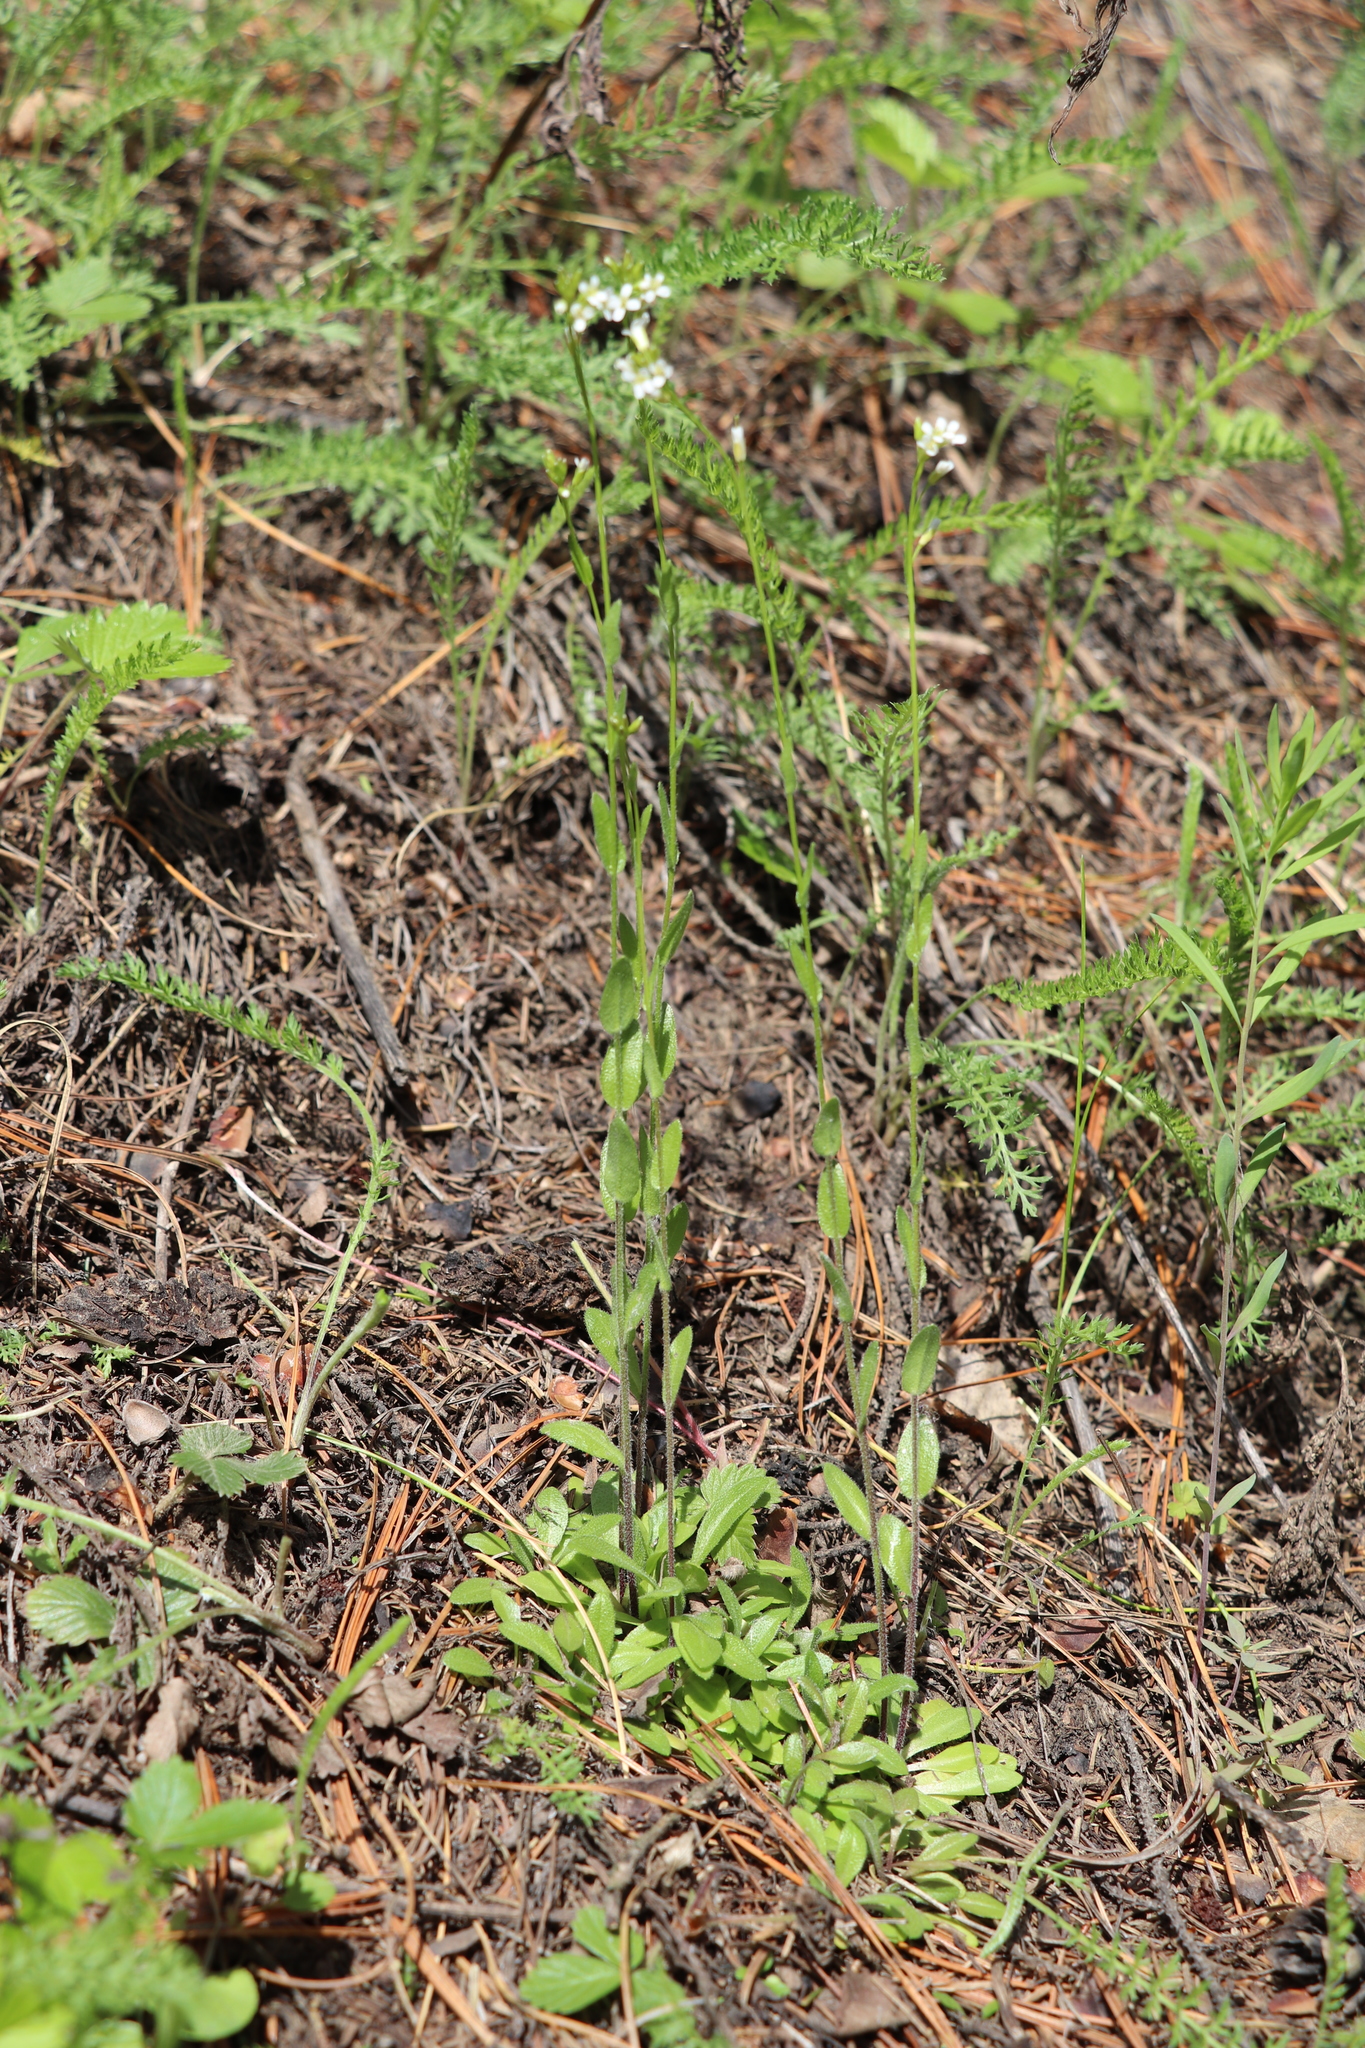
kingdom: Plantae
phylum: Tracheophyta
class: Magnoliopsida
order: Brassicales
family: Brassicaceae
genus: Arabis
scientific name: Arabis borealis
